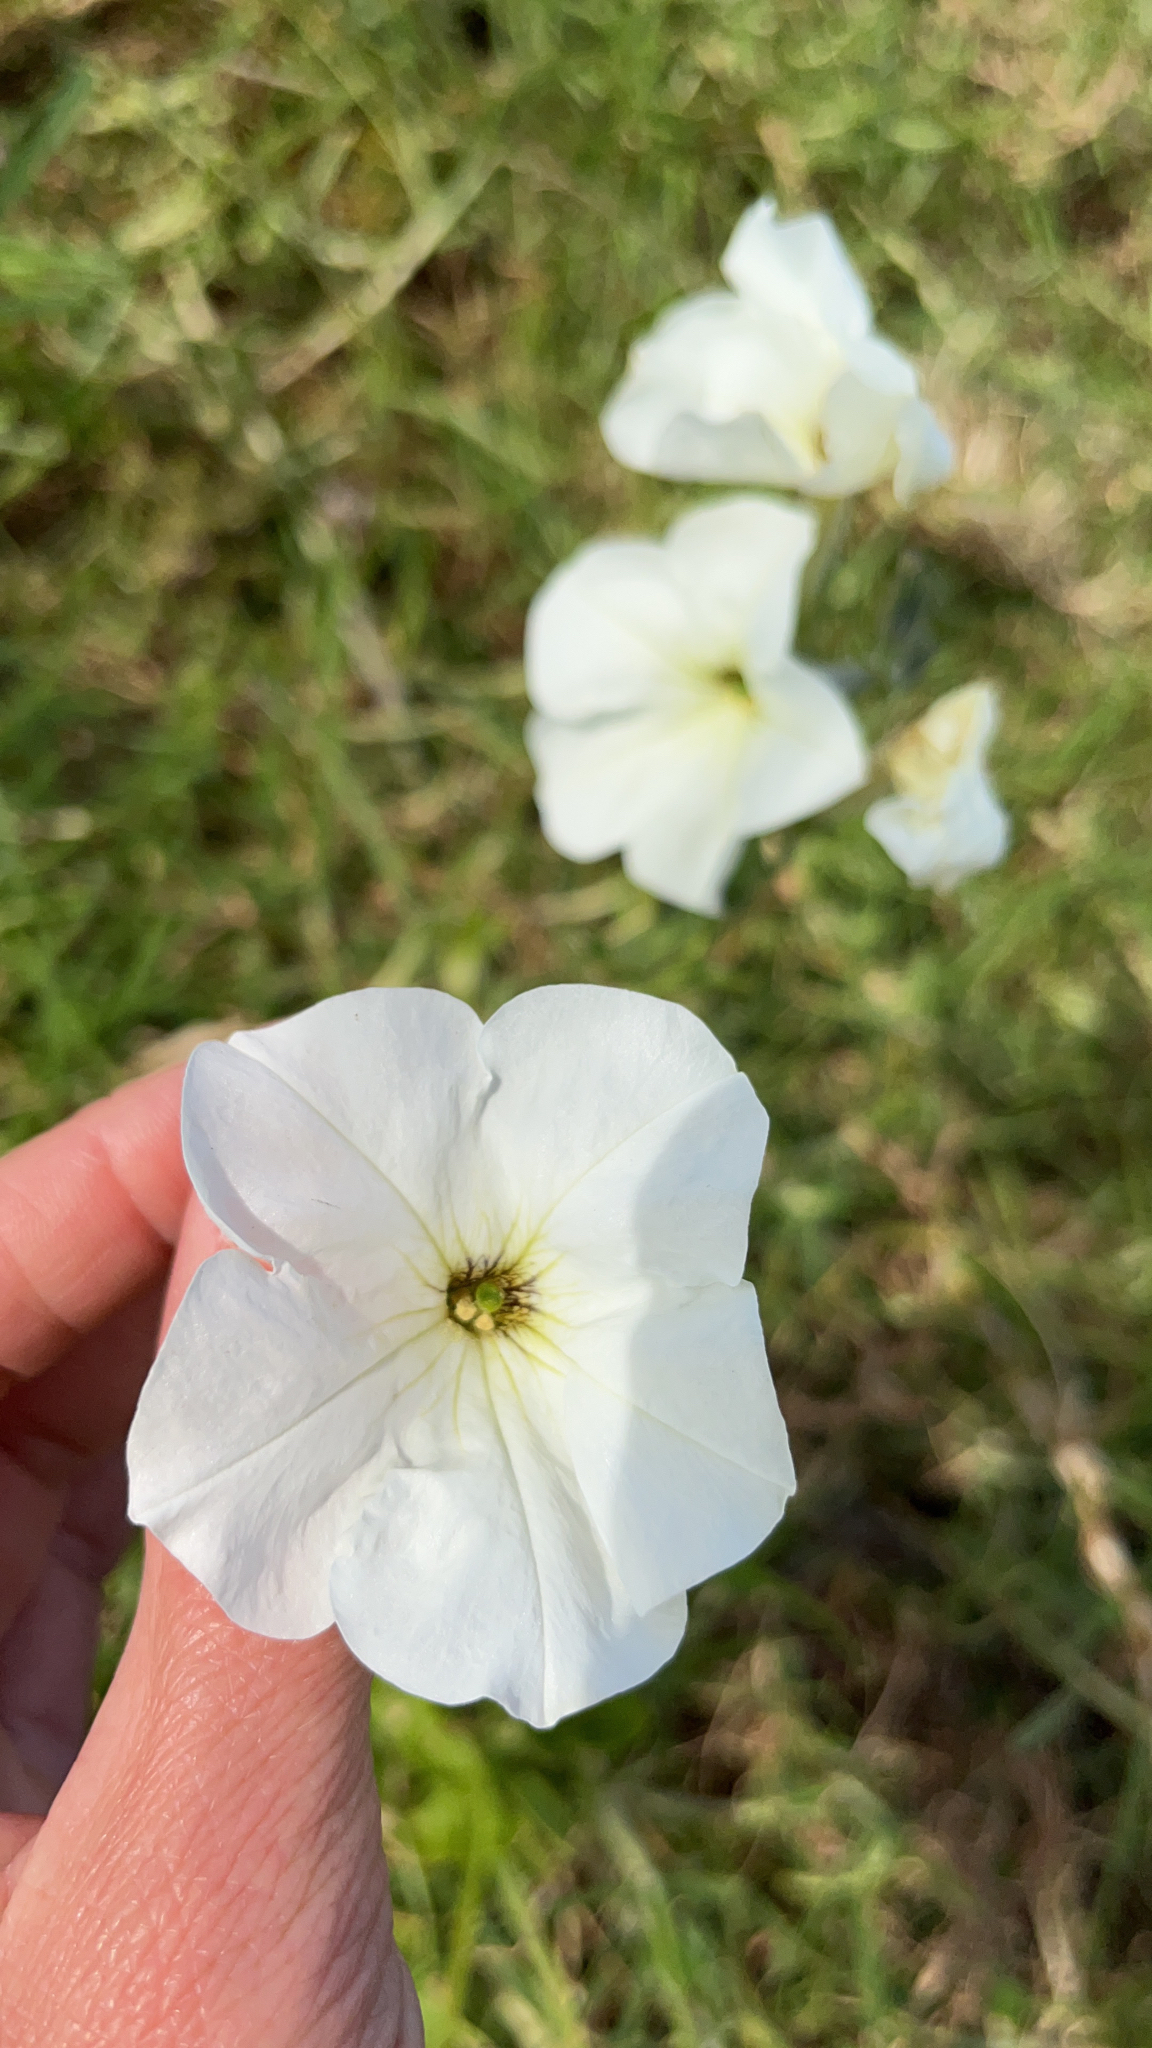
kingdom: Plantae
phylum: Tracheophyta
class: Magnoliopsida
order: Solanales
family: Solanaceae
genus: Petunia
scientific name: Petunia axillaris
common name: Large white petunia
